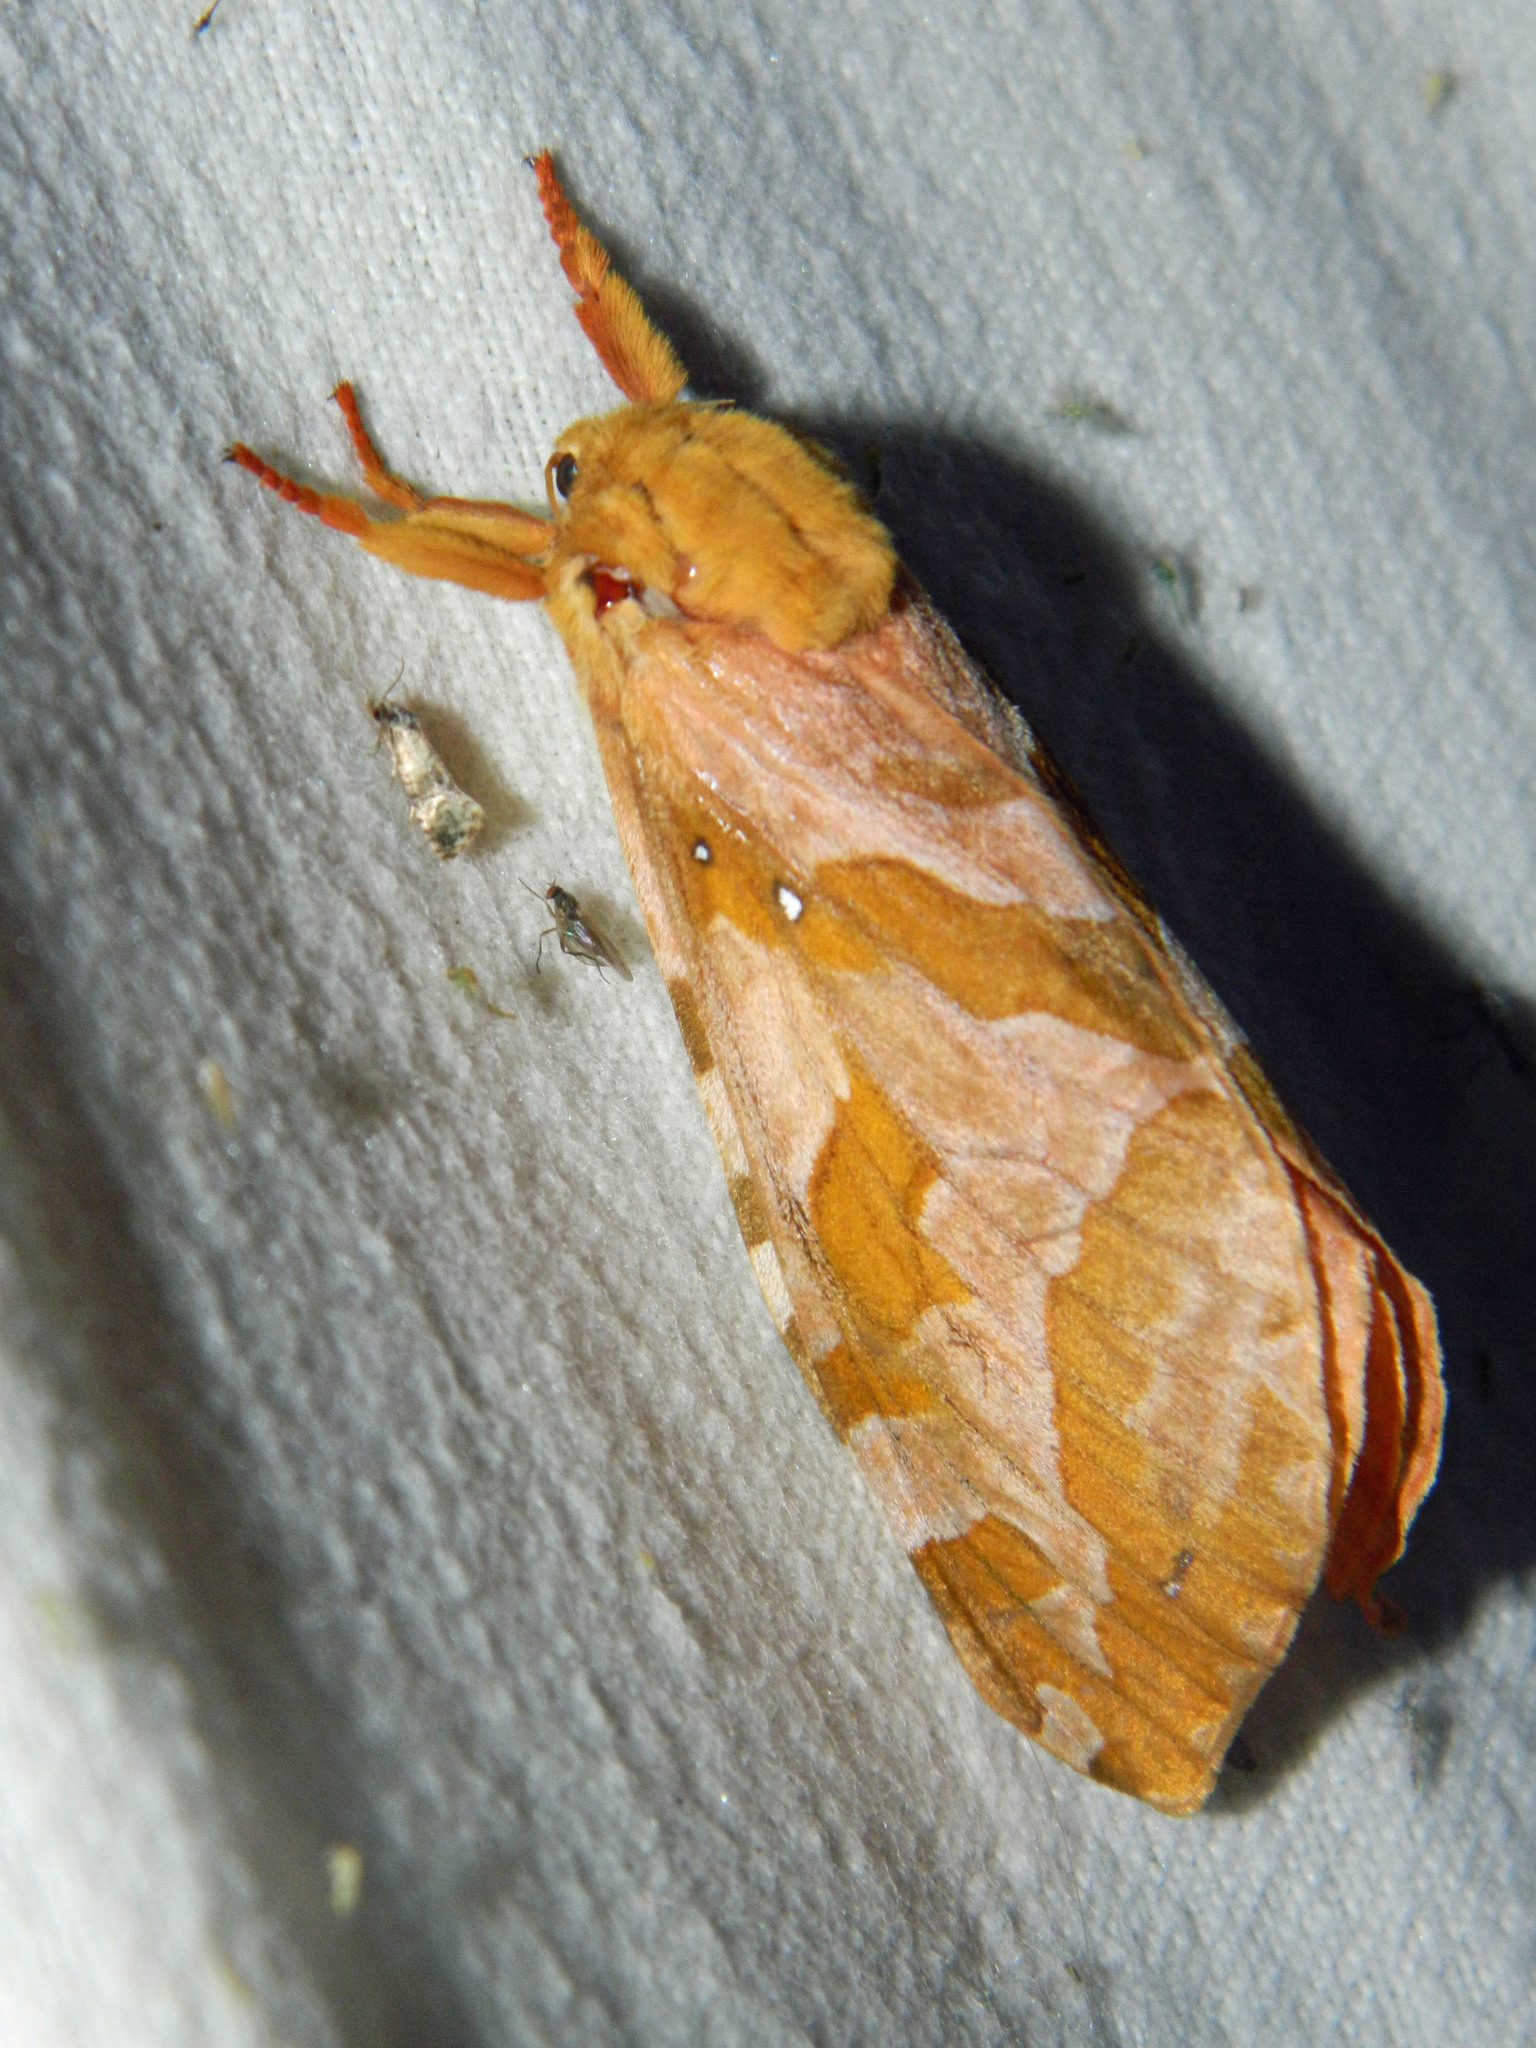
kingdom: Animalia
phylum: Arthropoda
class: Insecta
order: Lepidoptera
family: Hepialidae
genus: Sthenopis
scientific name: Sthenopis purpurascens
